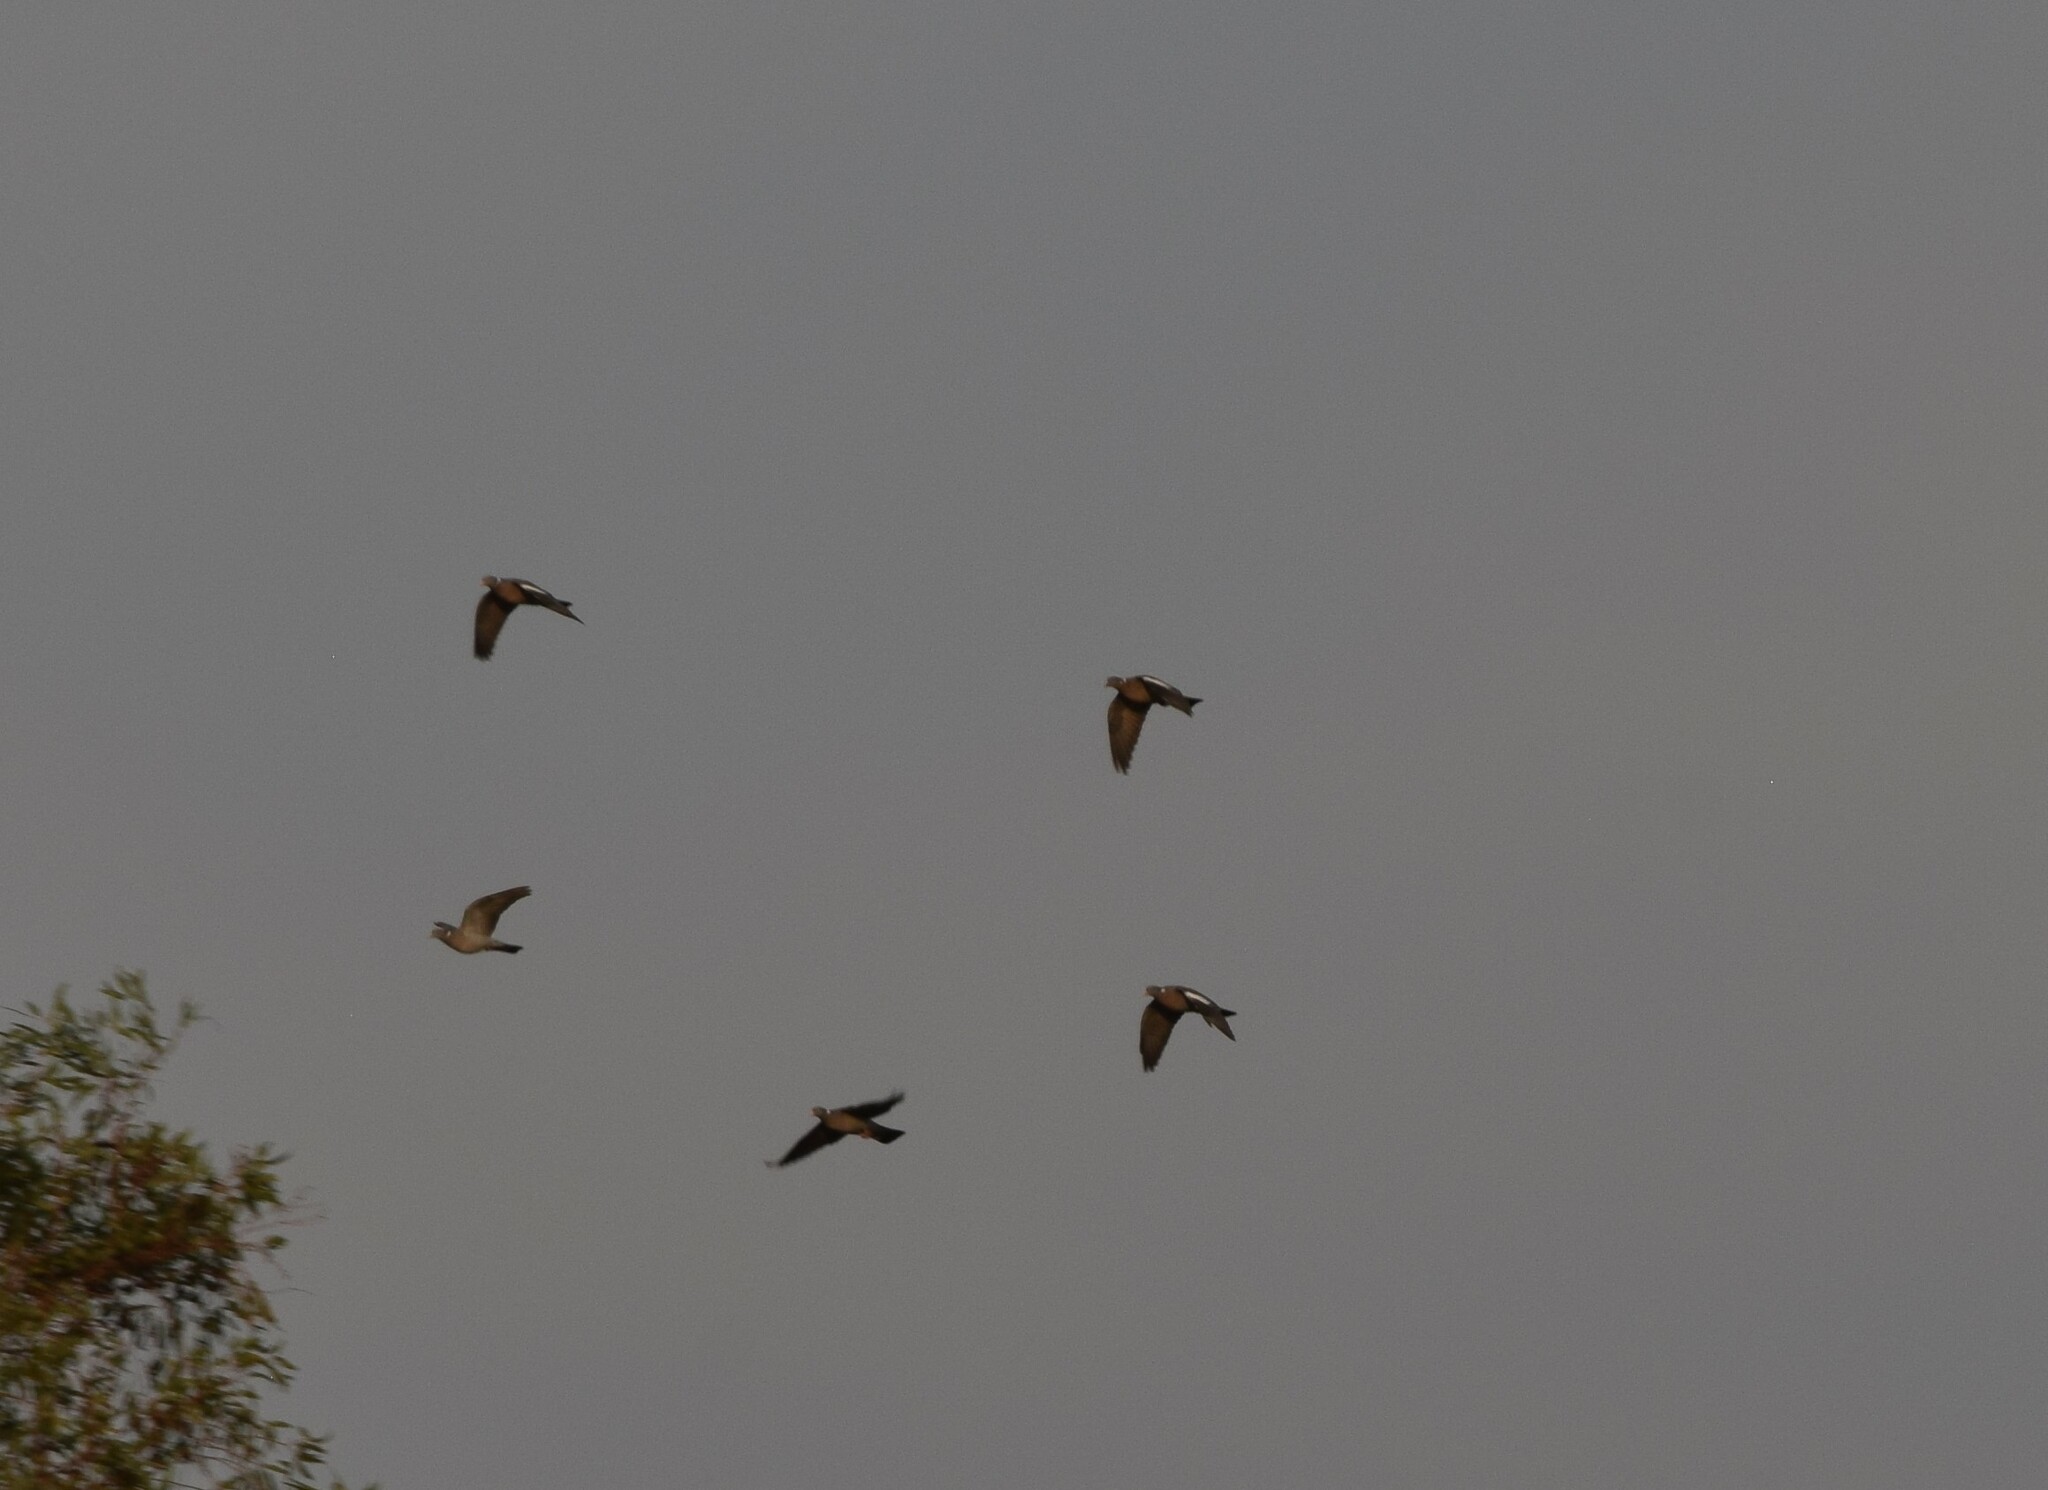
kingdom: Animalia
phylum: Chordata
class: Aves
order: Columbiformes
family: Columbidae
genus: Columba
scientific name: Columba palumbus
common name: Common wood pigeon
